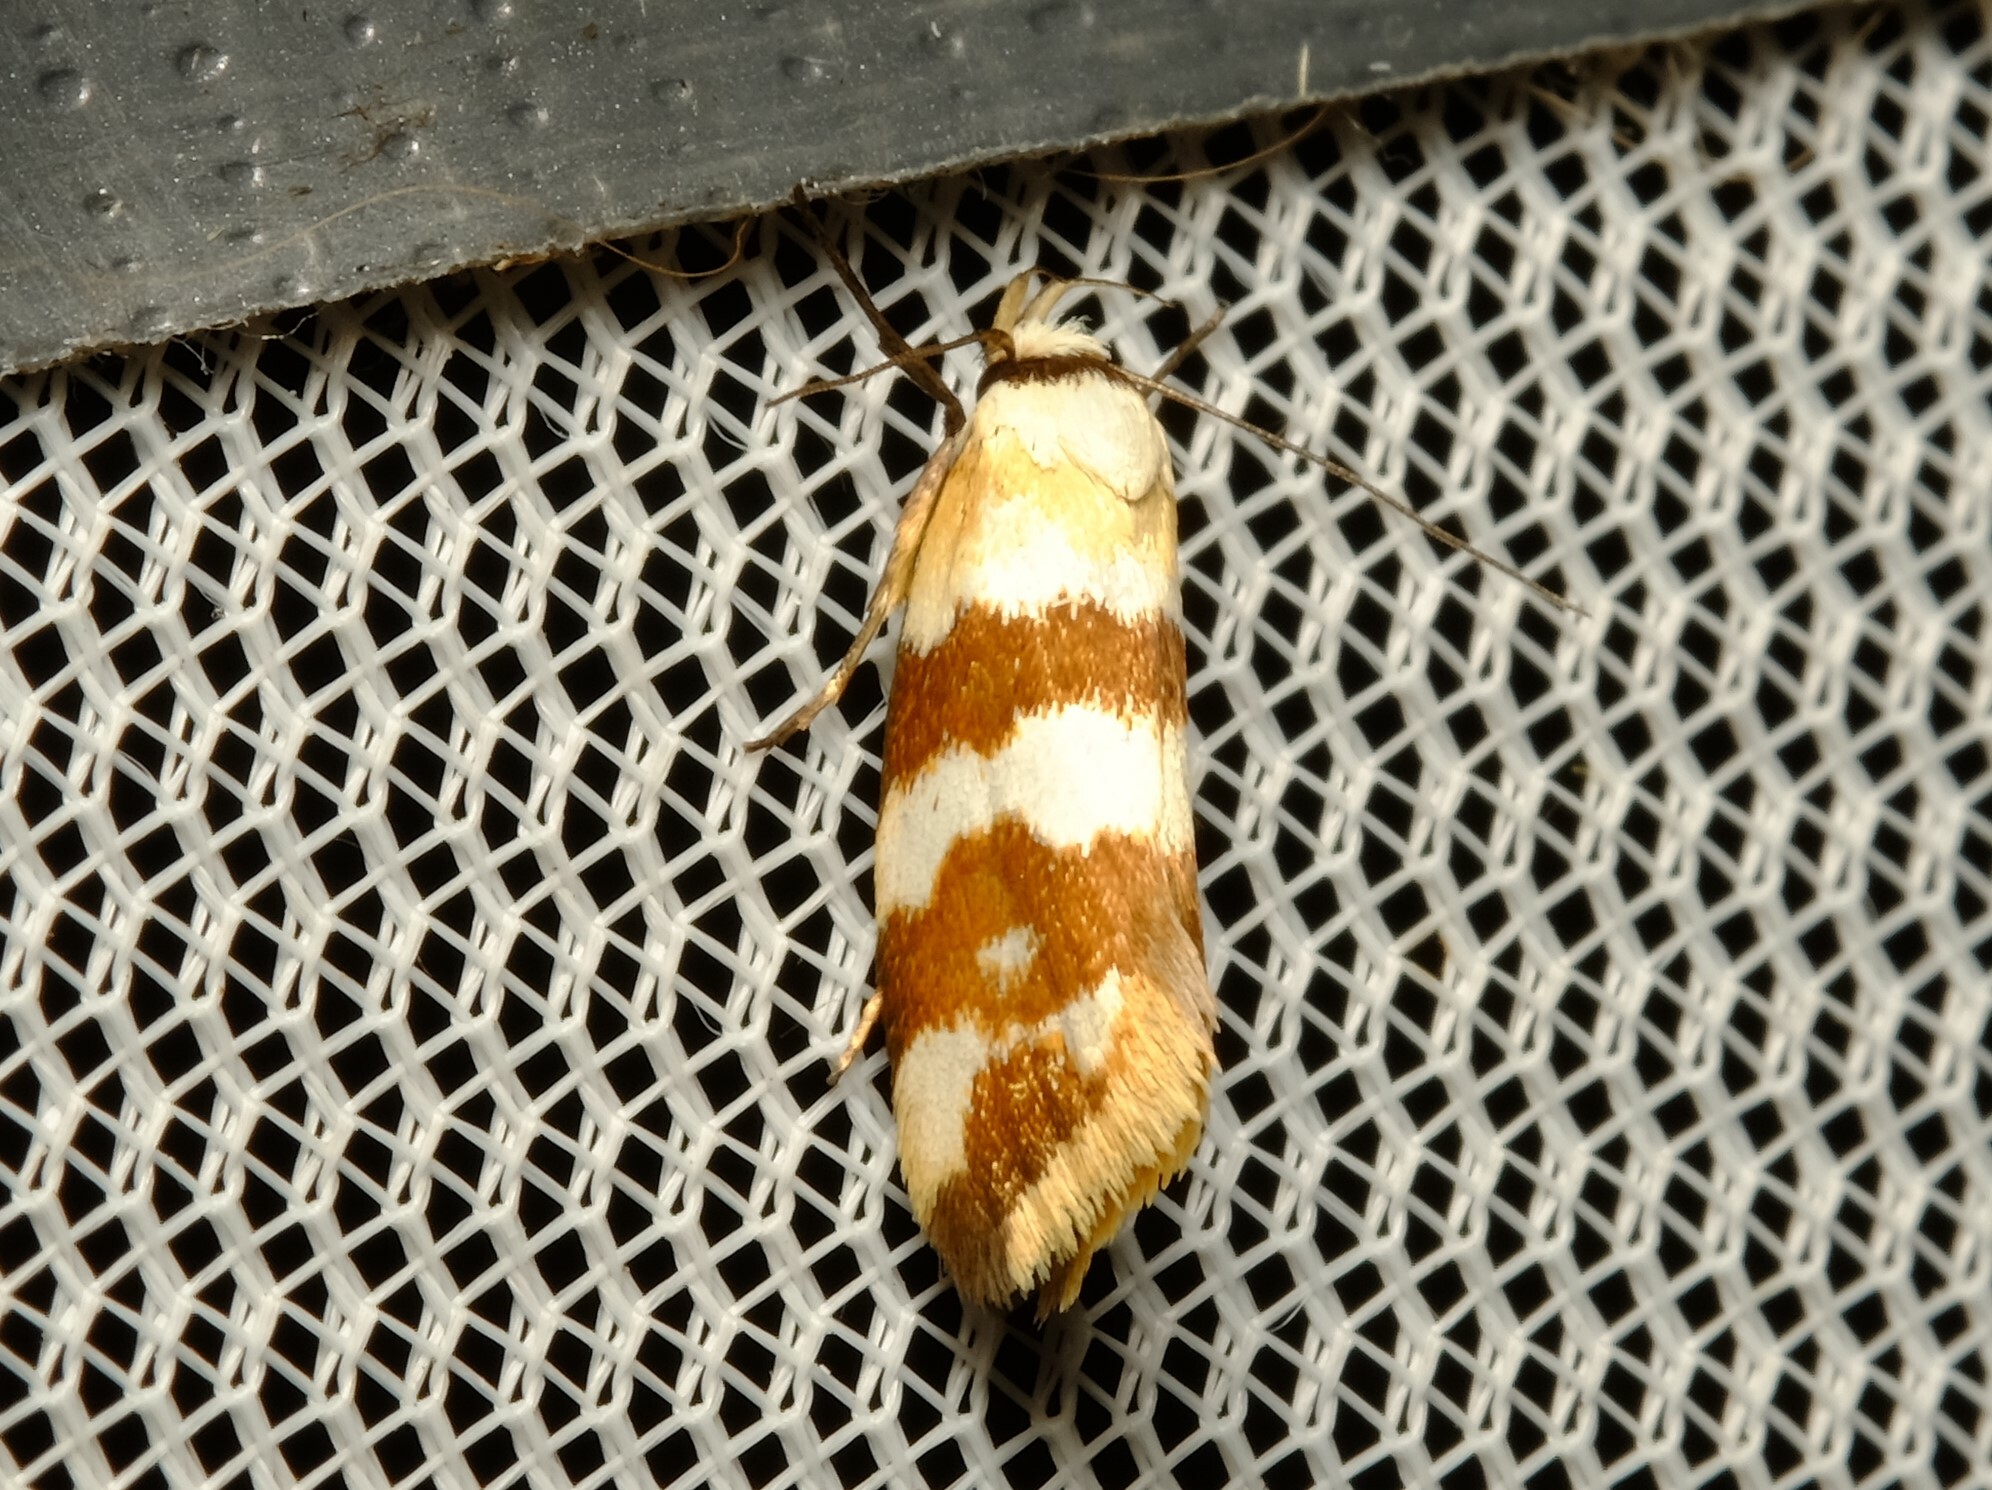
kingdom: Animalia
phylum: Arthropoda
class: Insecta
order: Lepidoptera
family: Oecophoridae
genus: Tanyzancla
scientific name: Tanyzancla atricollis
